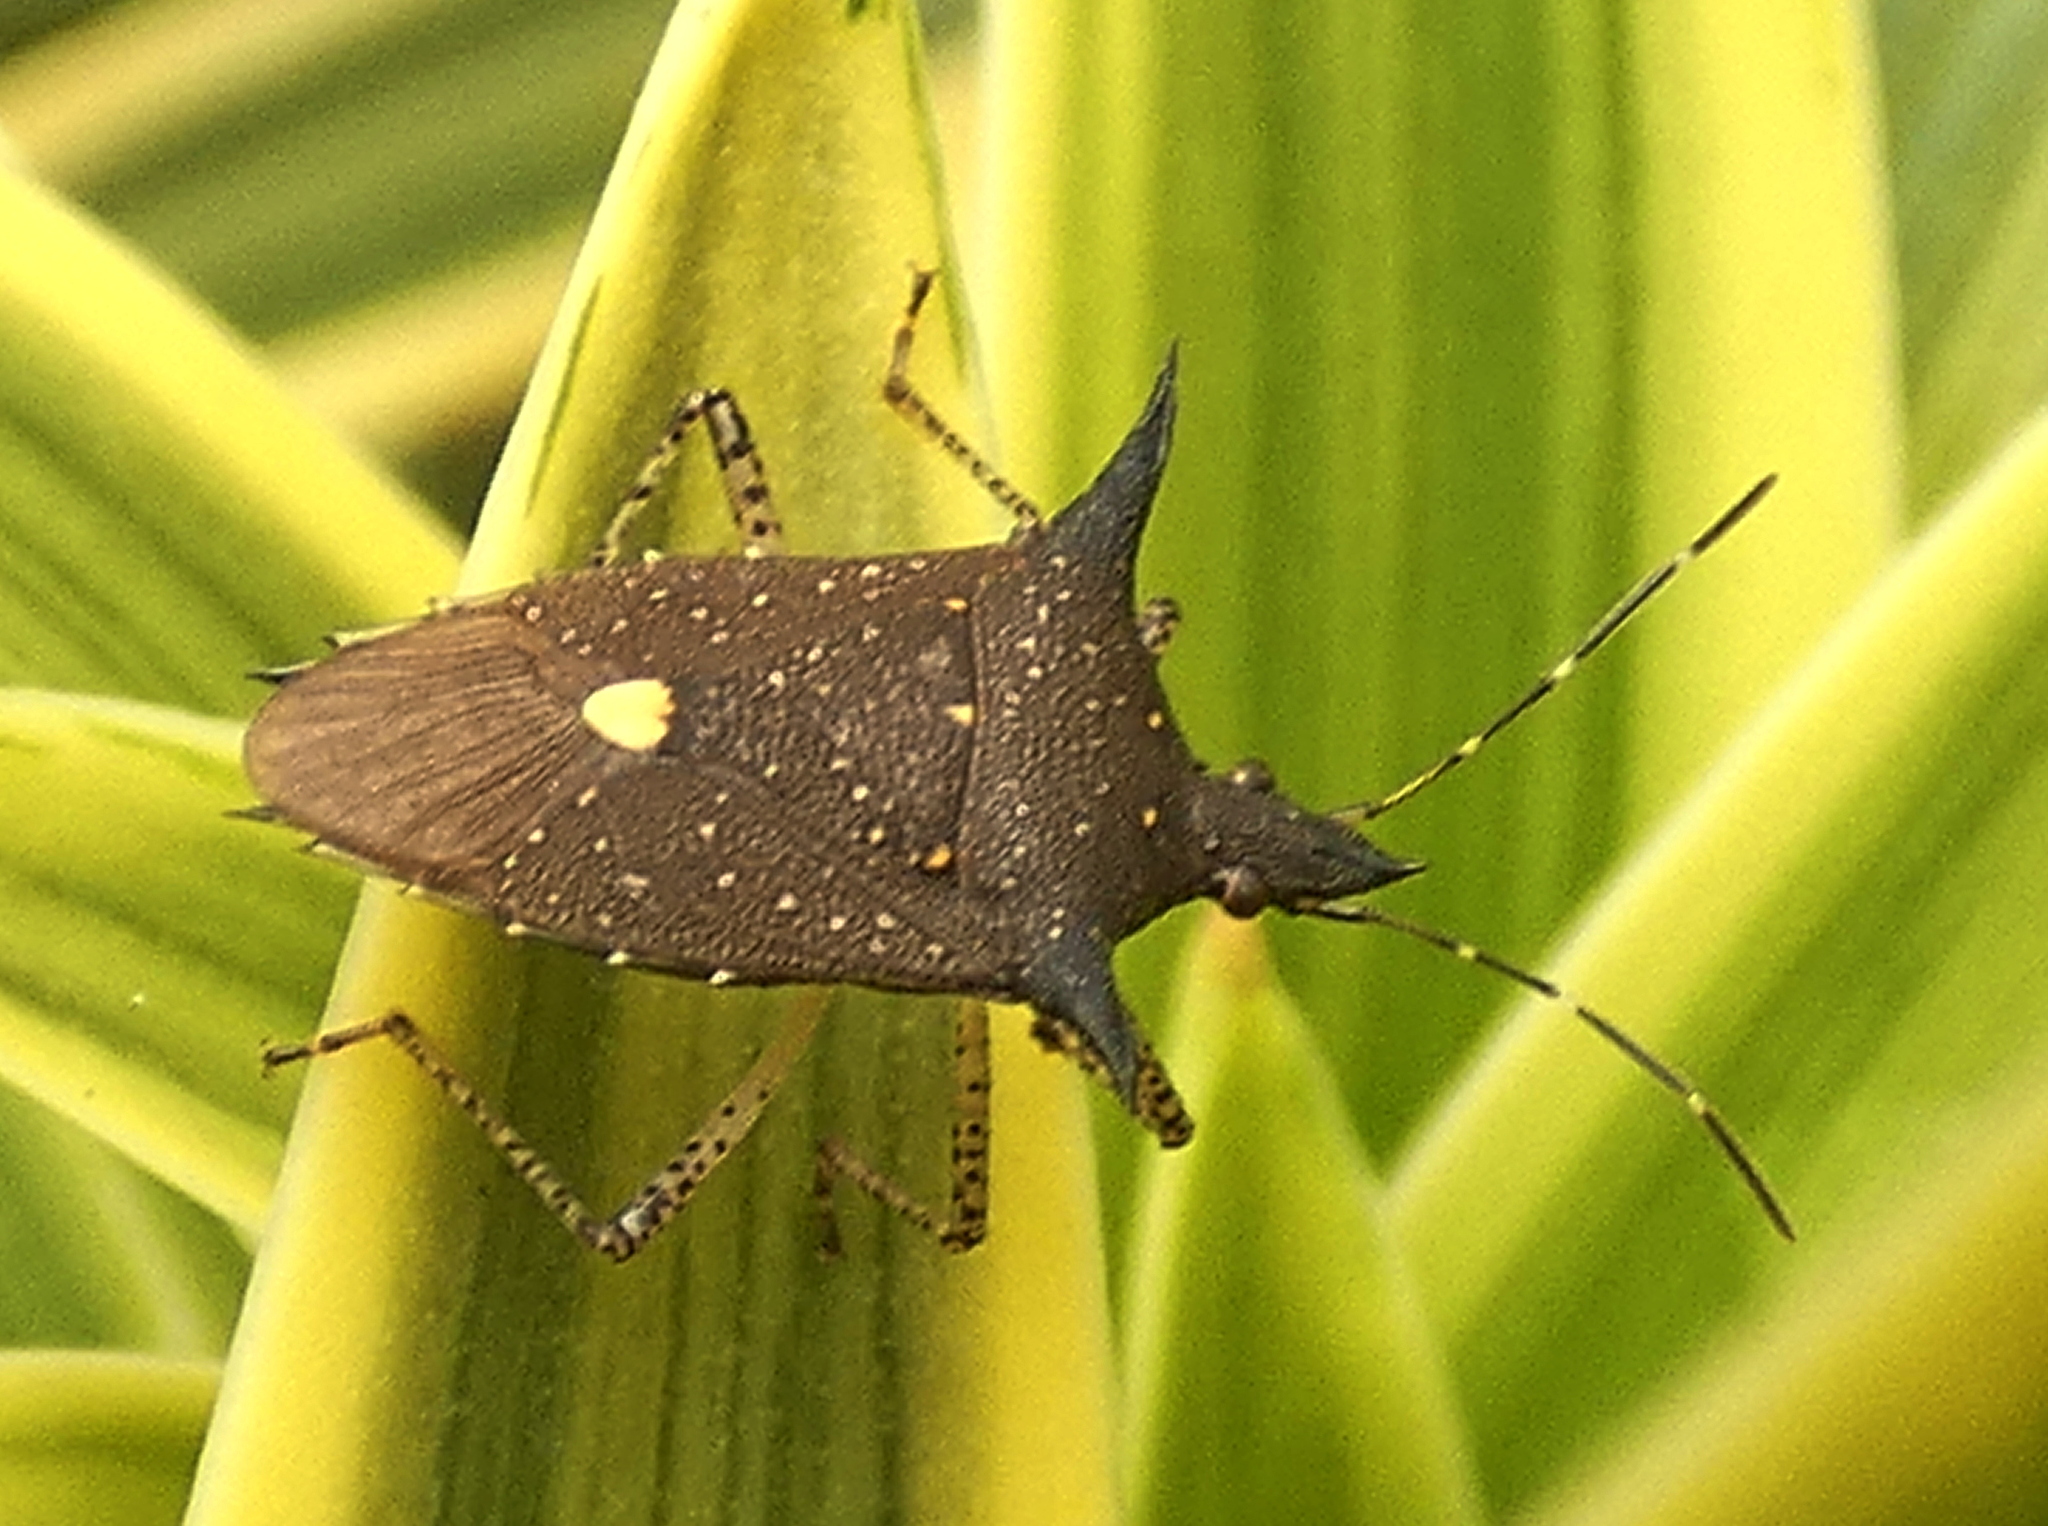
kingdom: Animalia
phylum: Arthropoda
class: Insecta
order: Hemiptera
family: Pentatomidae
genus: Proxys
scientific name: Proxys albopunctulatus
